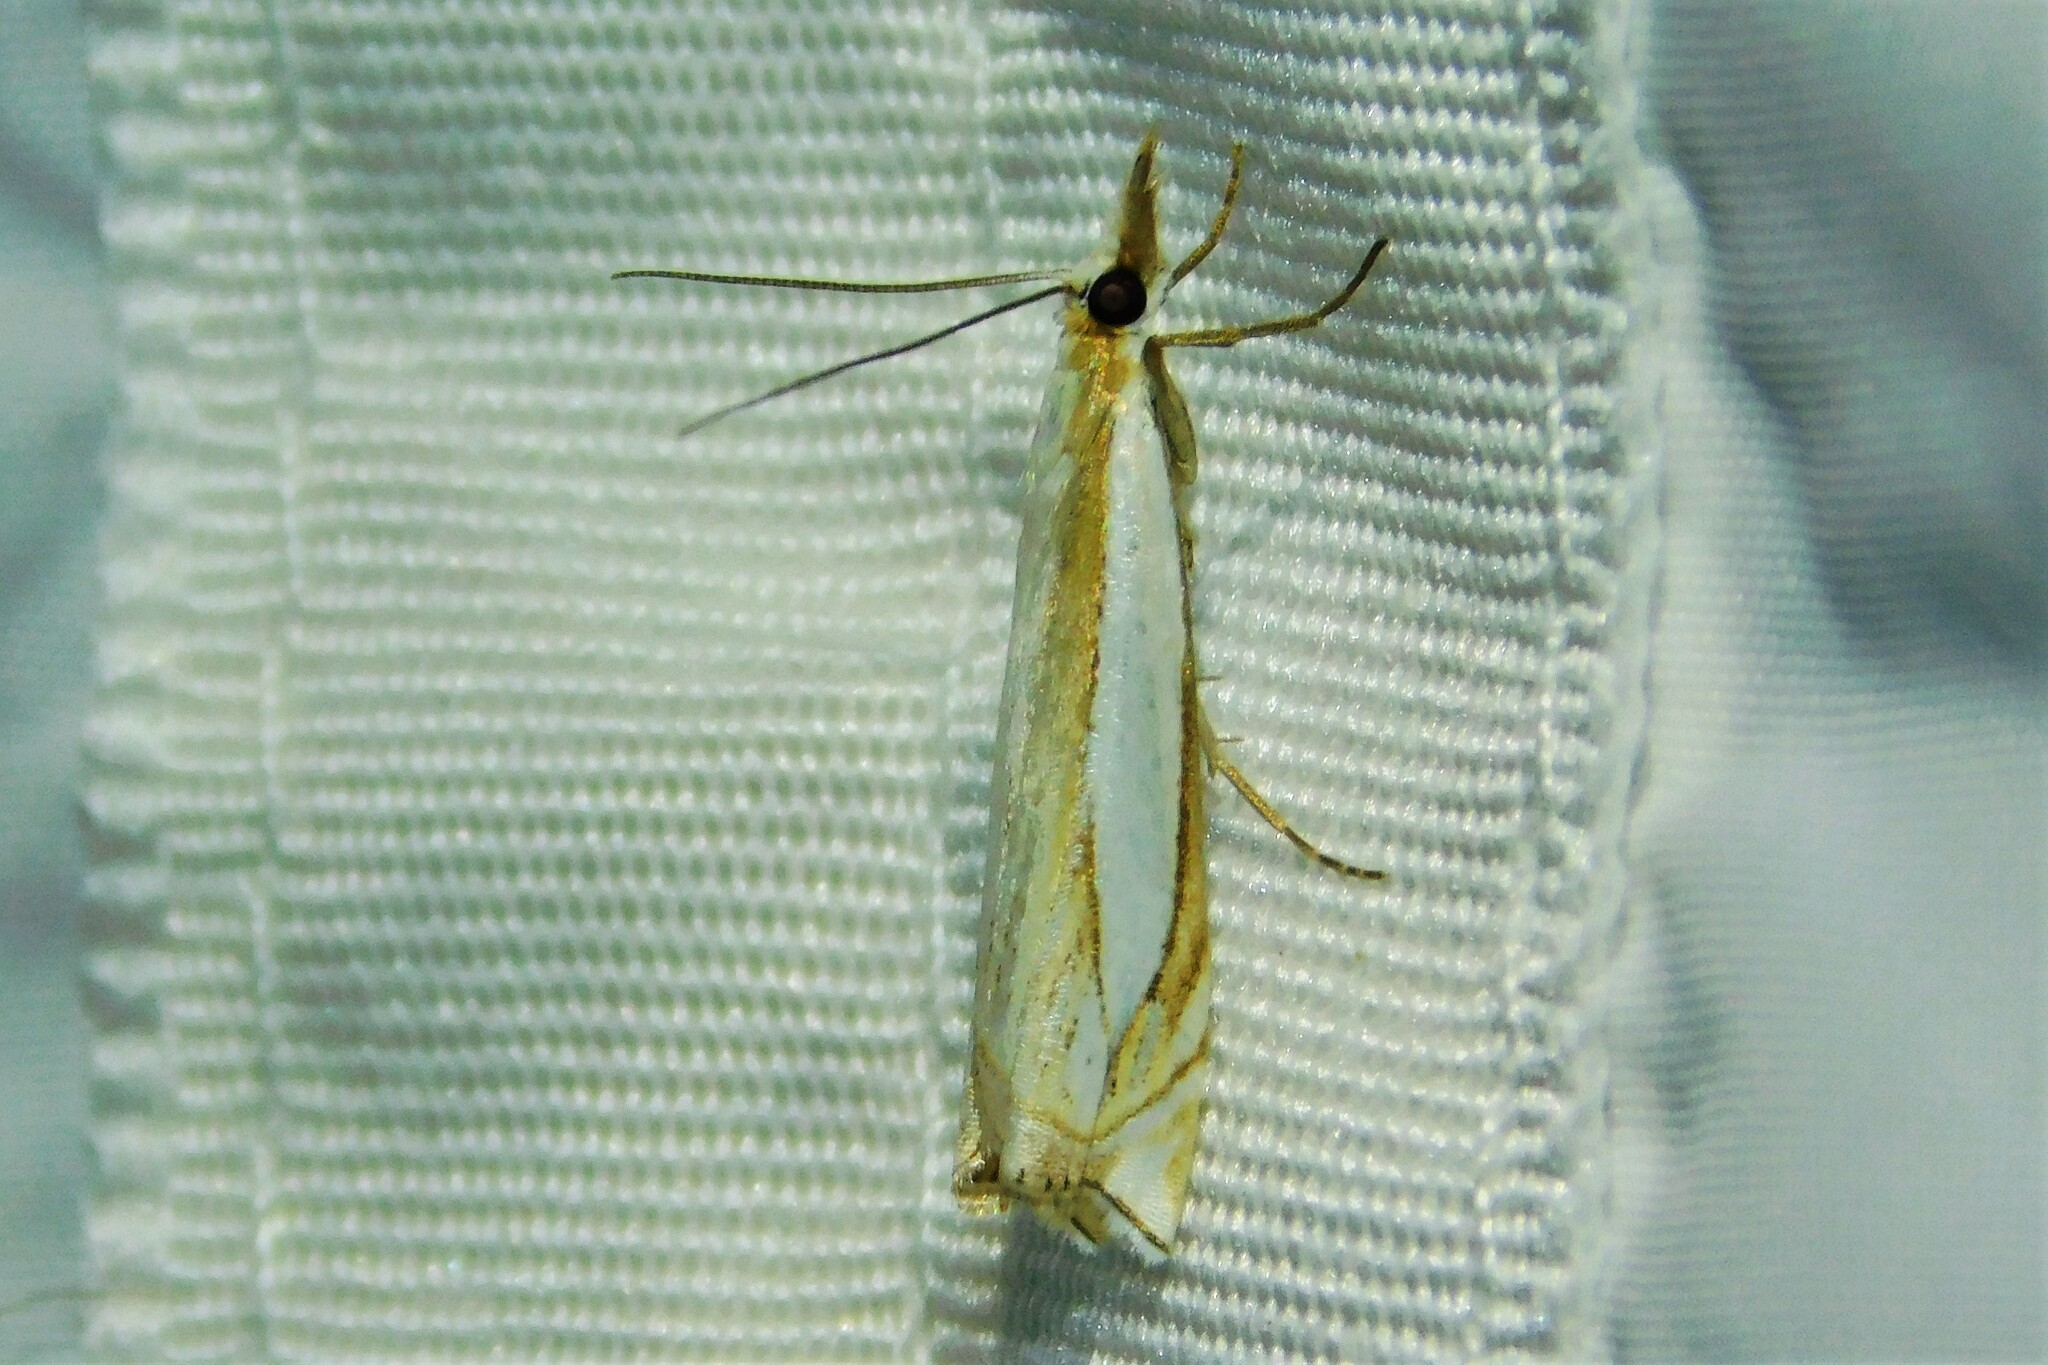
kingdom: Animalia
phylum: Arthropoda
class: Insecta
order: Lepidoptera
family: Crambidae
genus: Crambus
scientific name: Crambus pascuella
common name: Inlaid grass-veneer
